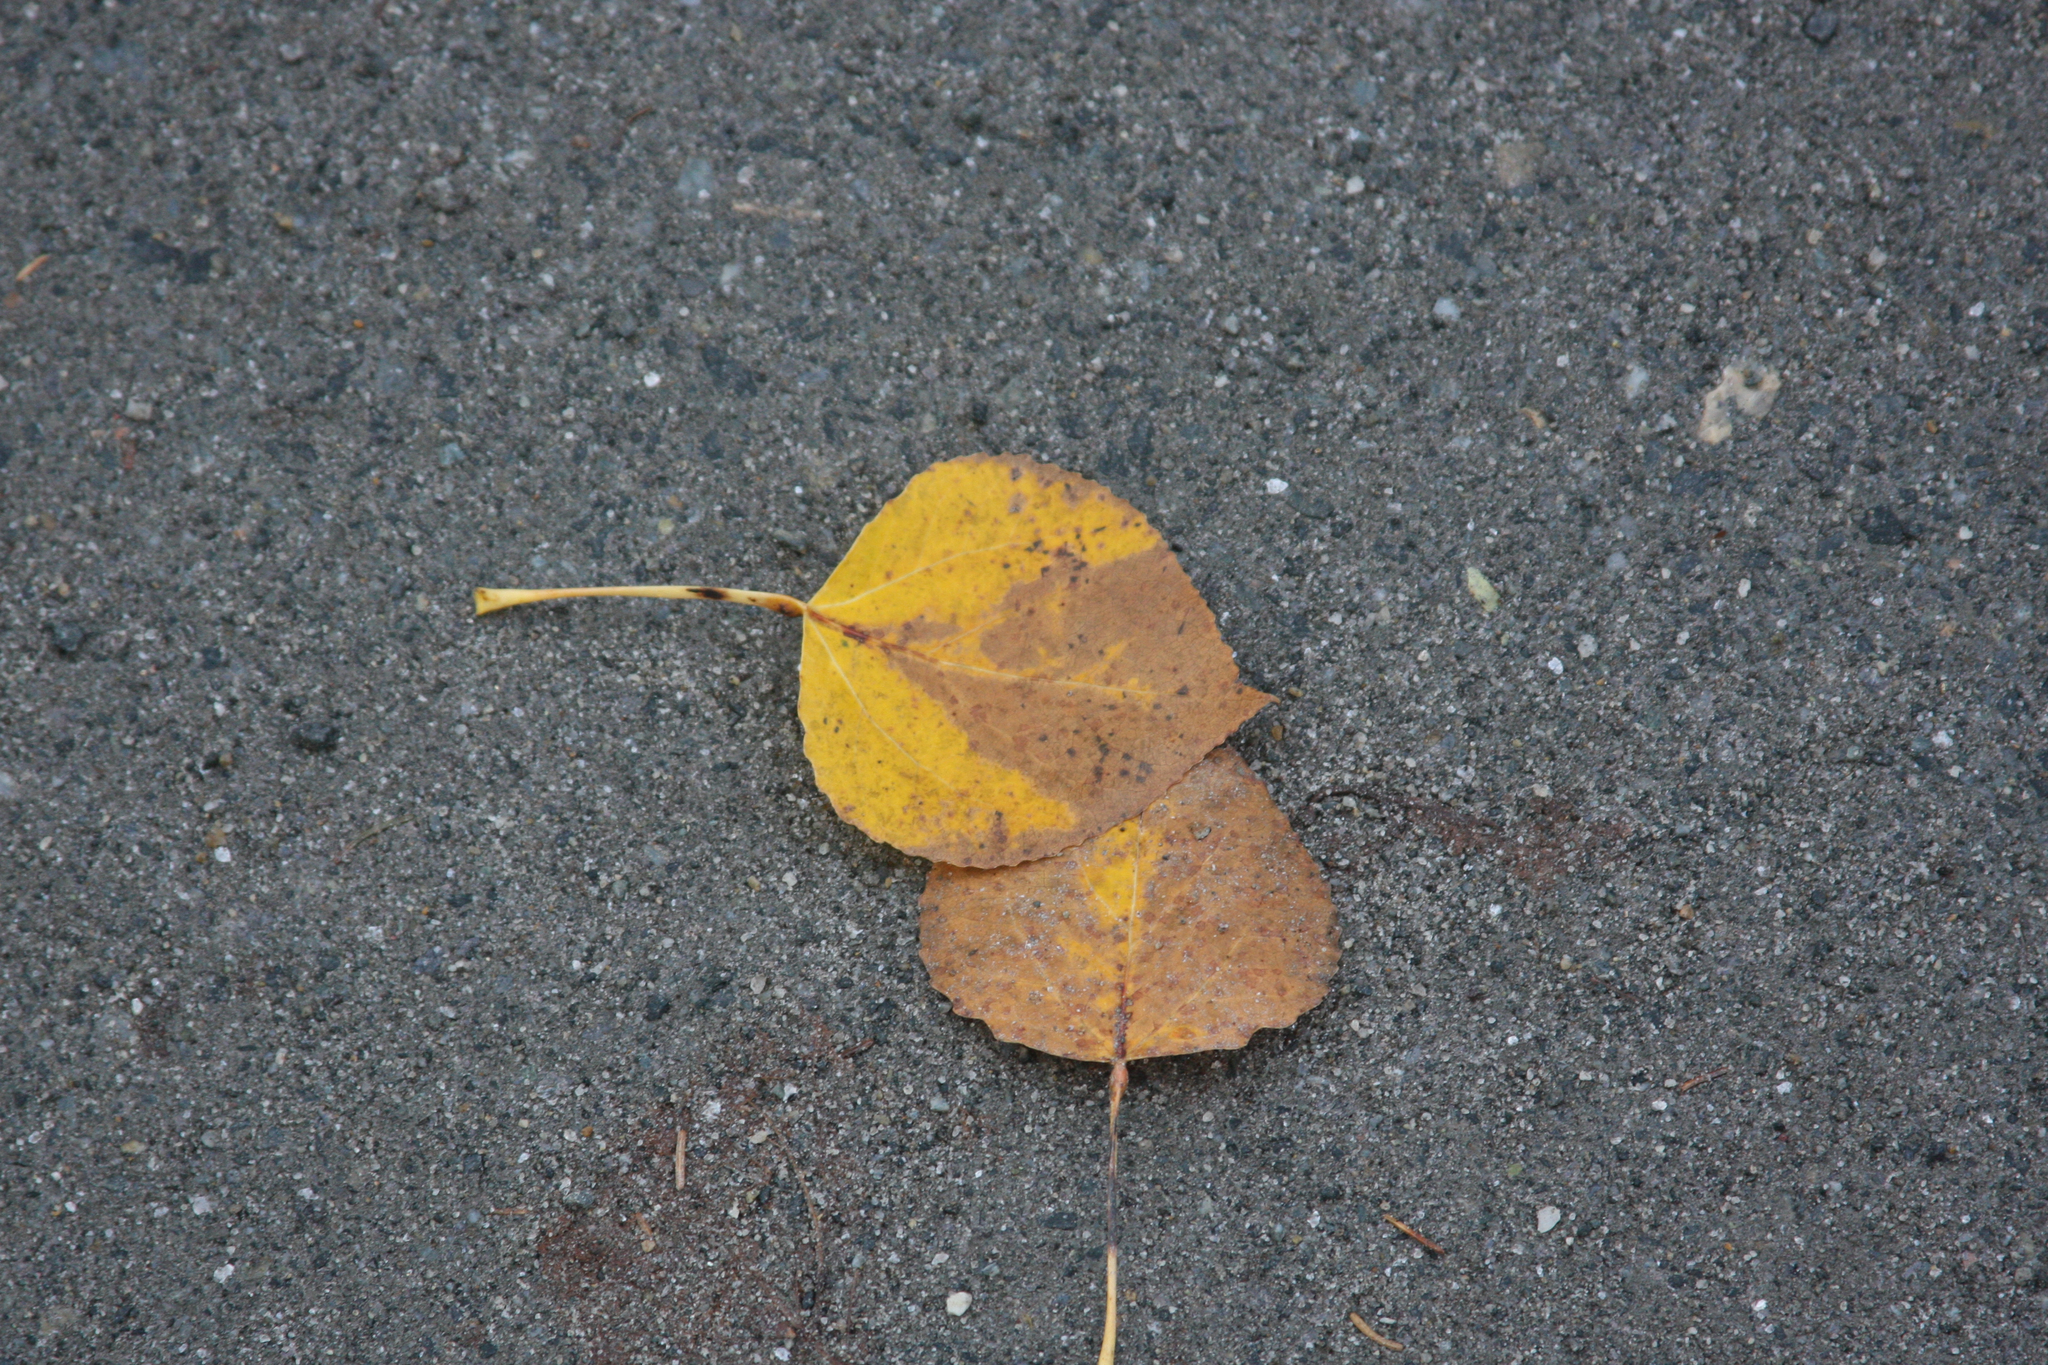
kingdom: Plantae
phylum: Tracheophyta
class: Magnoliopsida
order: Malpighiales
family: Salicaceae
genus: Populus
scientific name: Populus tremuloides
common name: Quaking aspen
